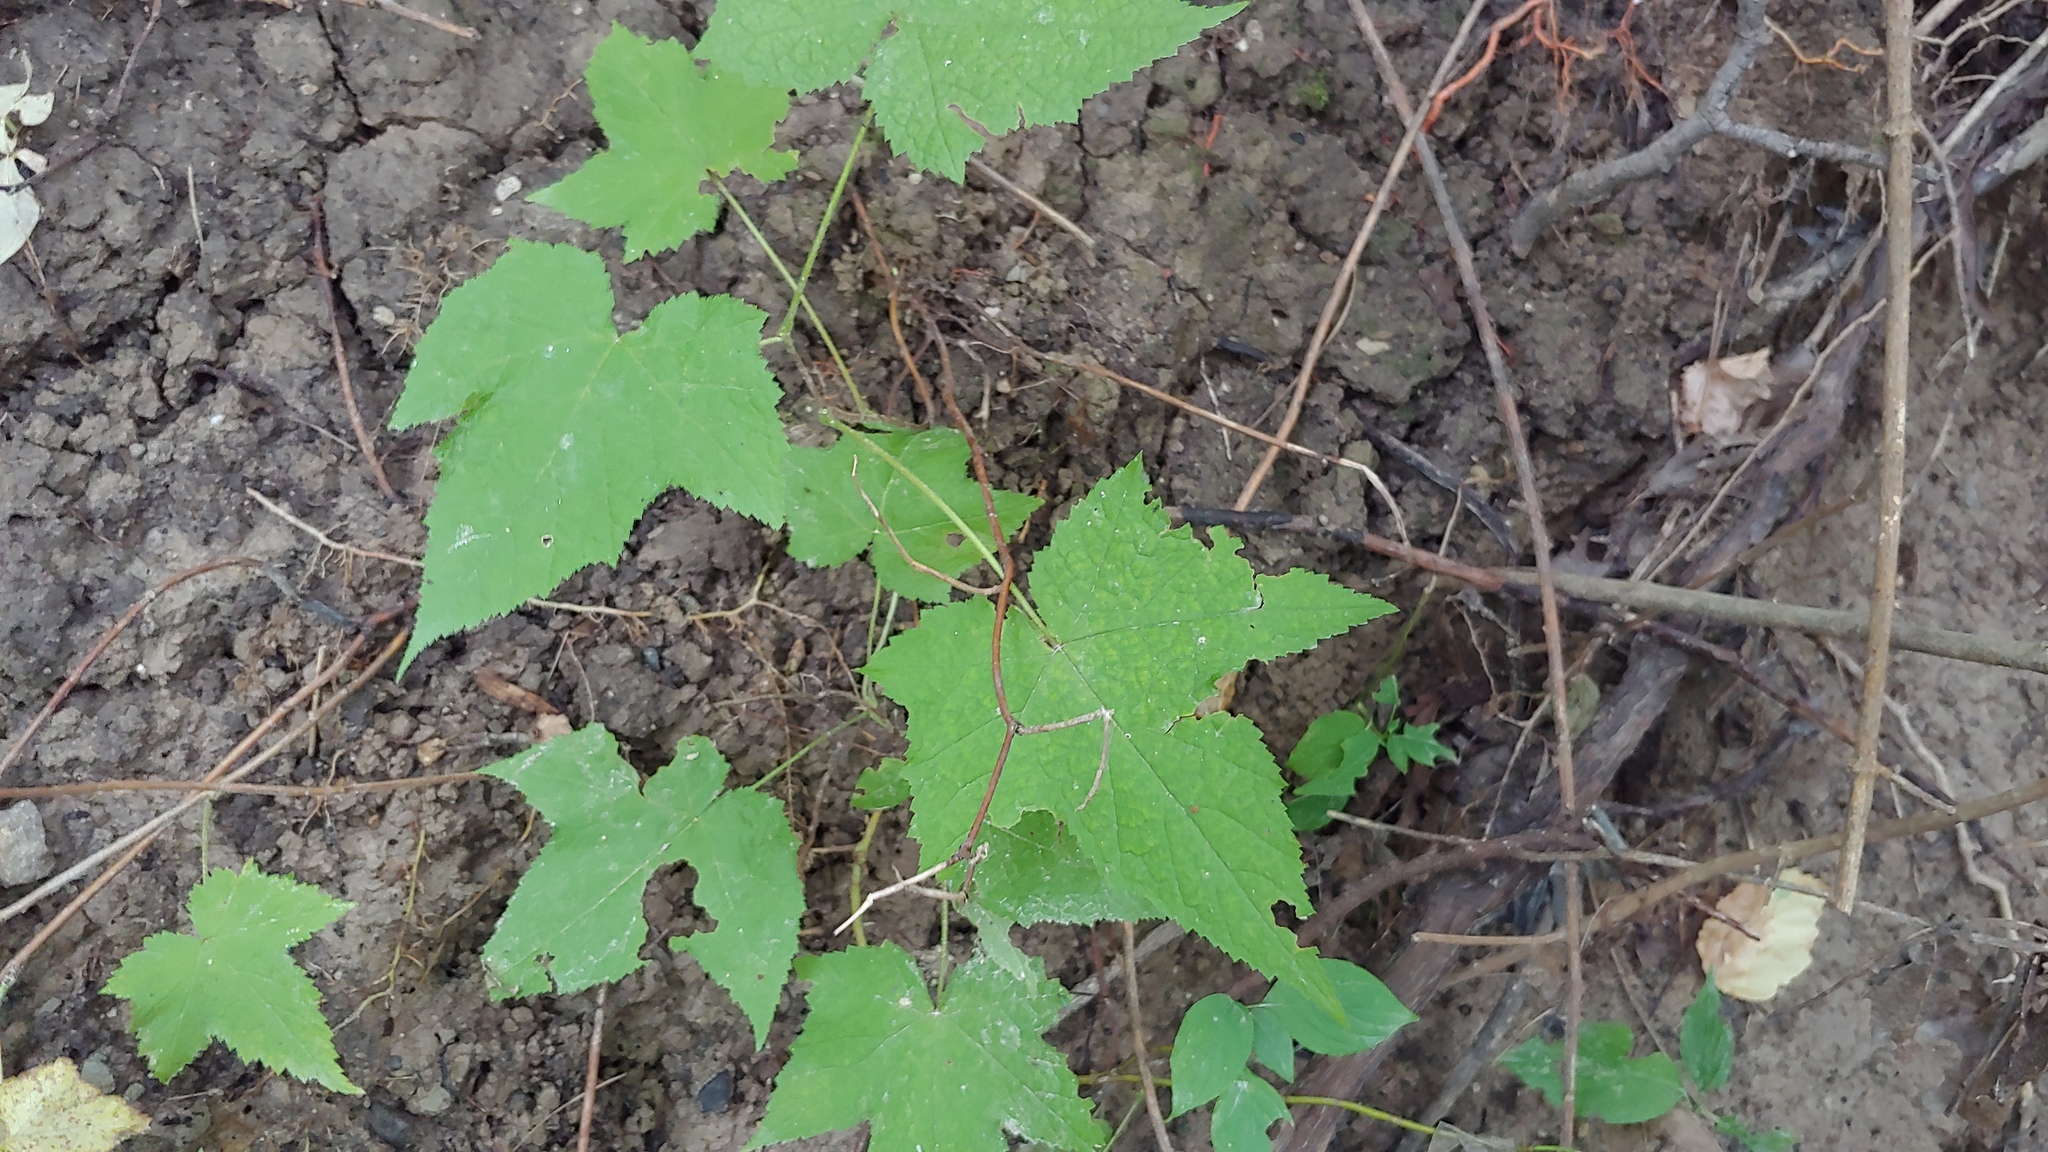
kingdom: Plantae
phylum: Tracheophyta
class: Magnoliopsida
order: Rosales
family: Rosaceae
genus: Rubus
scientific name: Rubus odoratus
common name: Purple-flowered raspberry
